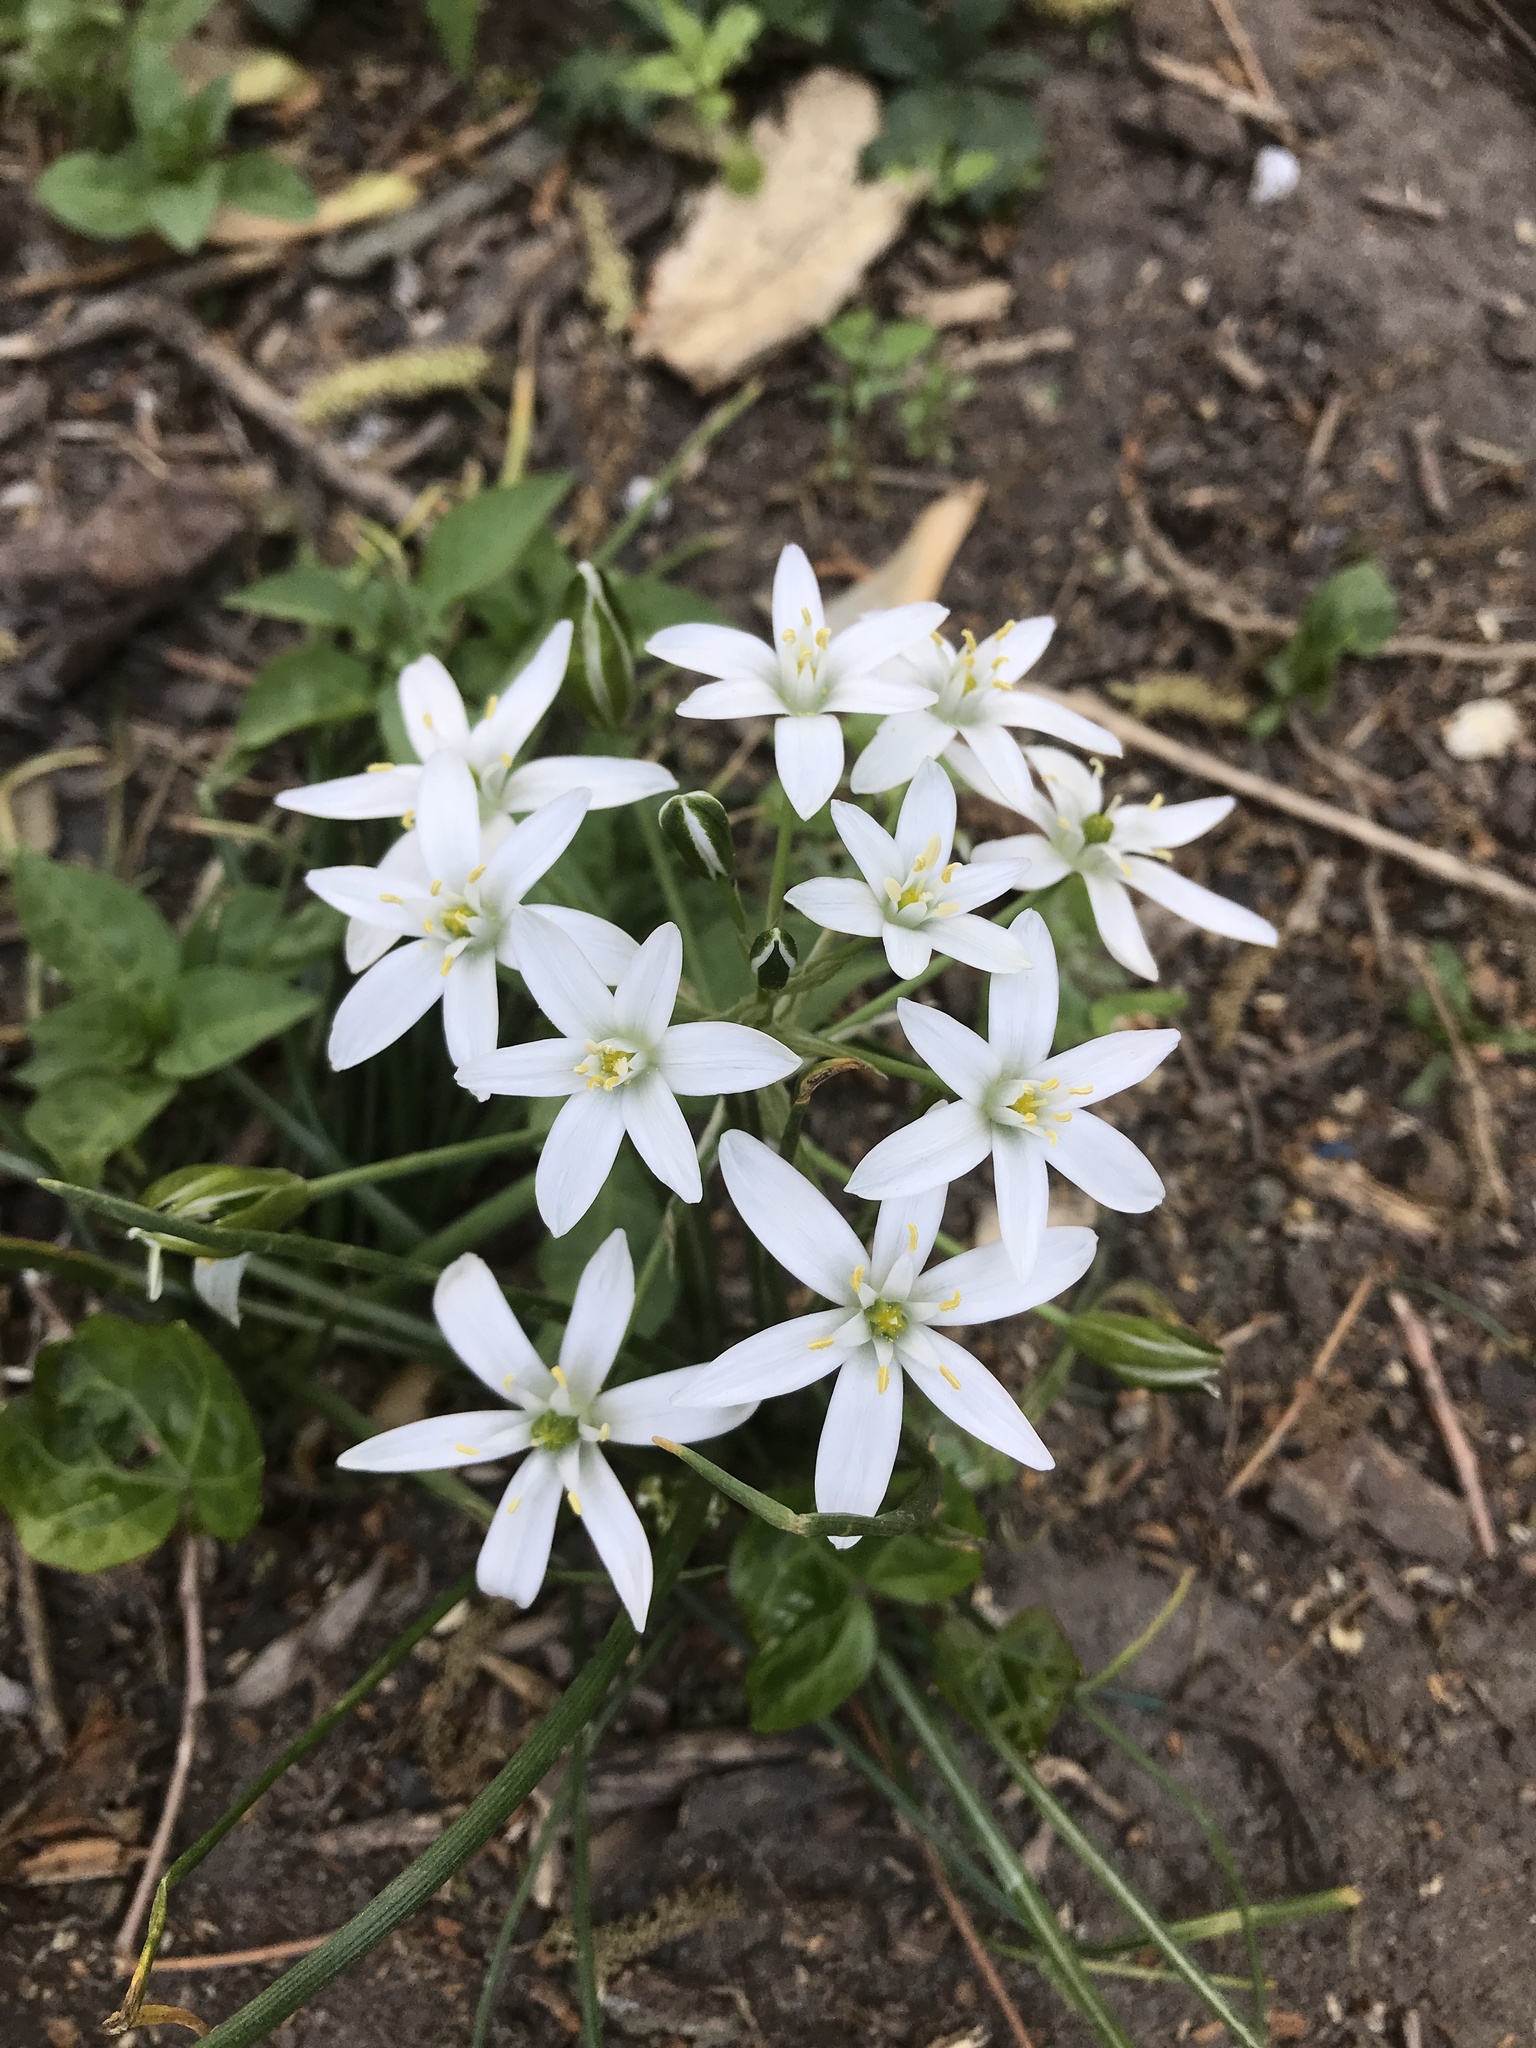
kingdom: Plantae
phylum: Tracheophyta
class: Liliopsida
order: Asparagales
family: Asparagaceae
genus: Ornithogalum
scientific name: Ornithogalum umbellatum
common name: Garden star-of-bethlehem
